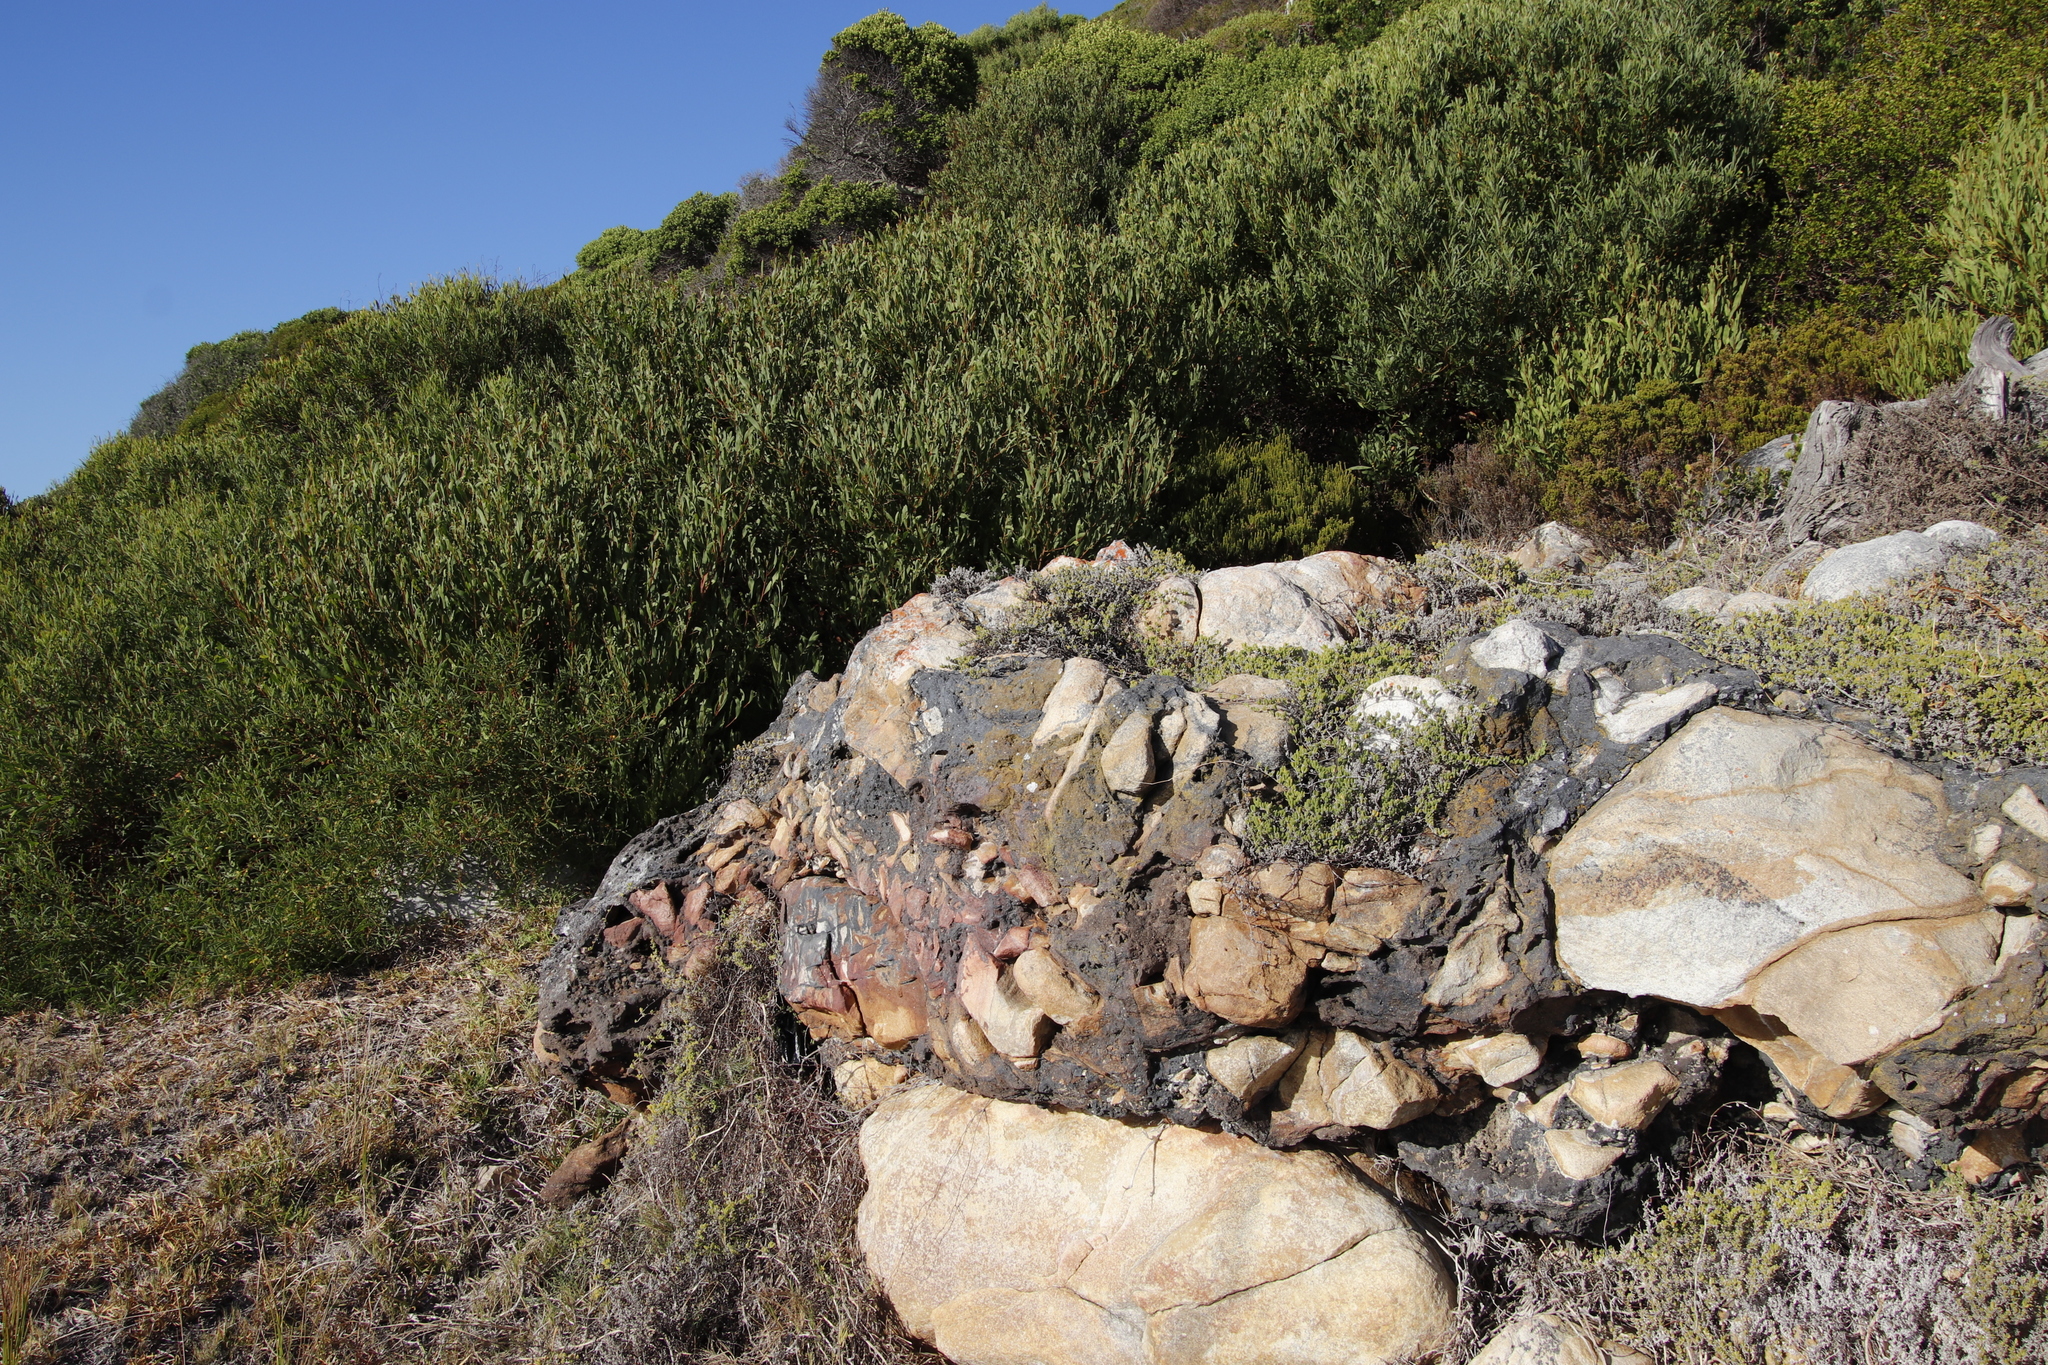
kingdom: Plantae
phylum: Tracheophyta
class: Magnoliopsida
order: Caryophyllales
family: Aizoaceae
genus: Drosanthemum
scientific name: Drosanthemum candens
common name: Rodondo-creeper
